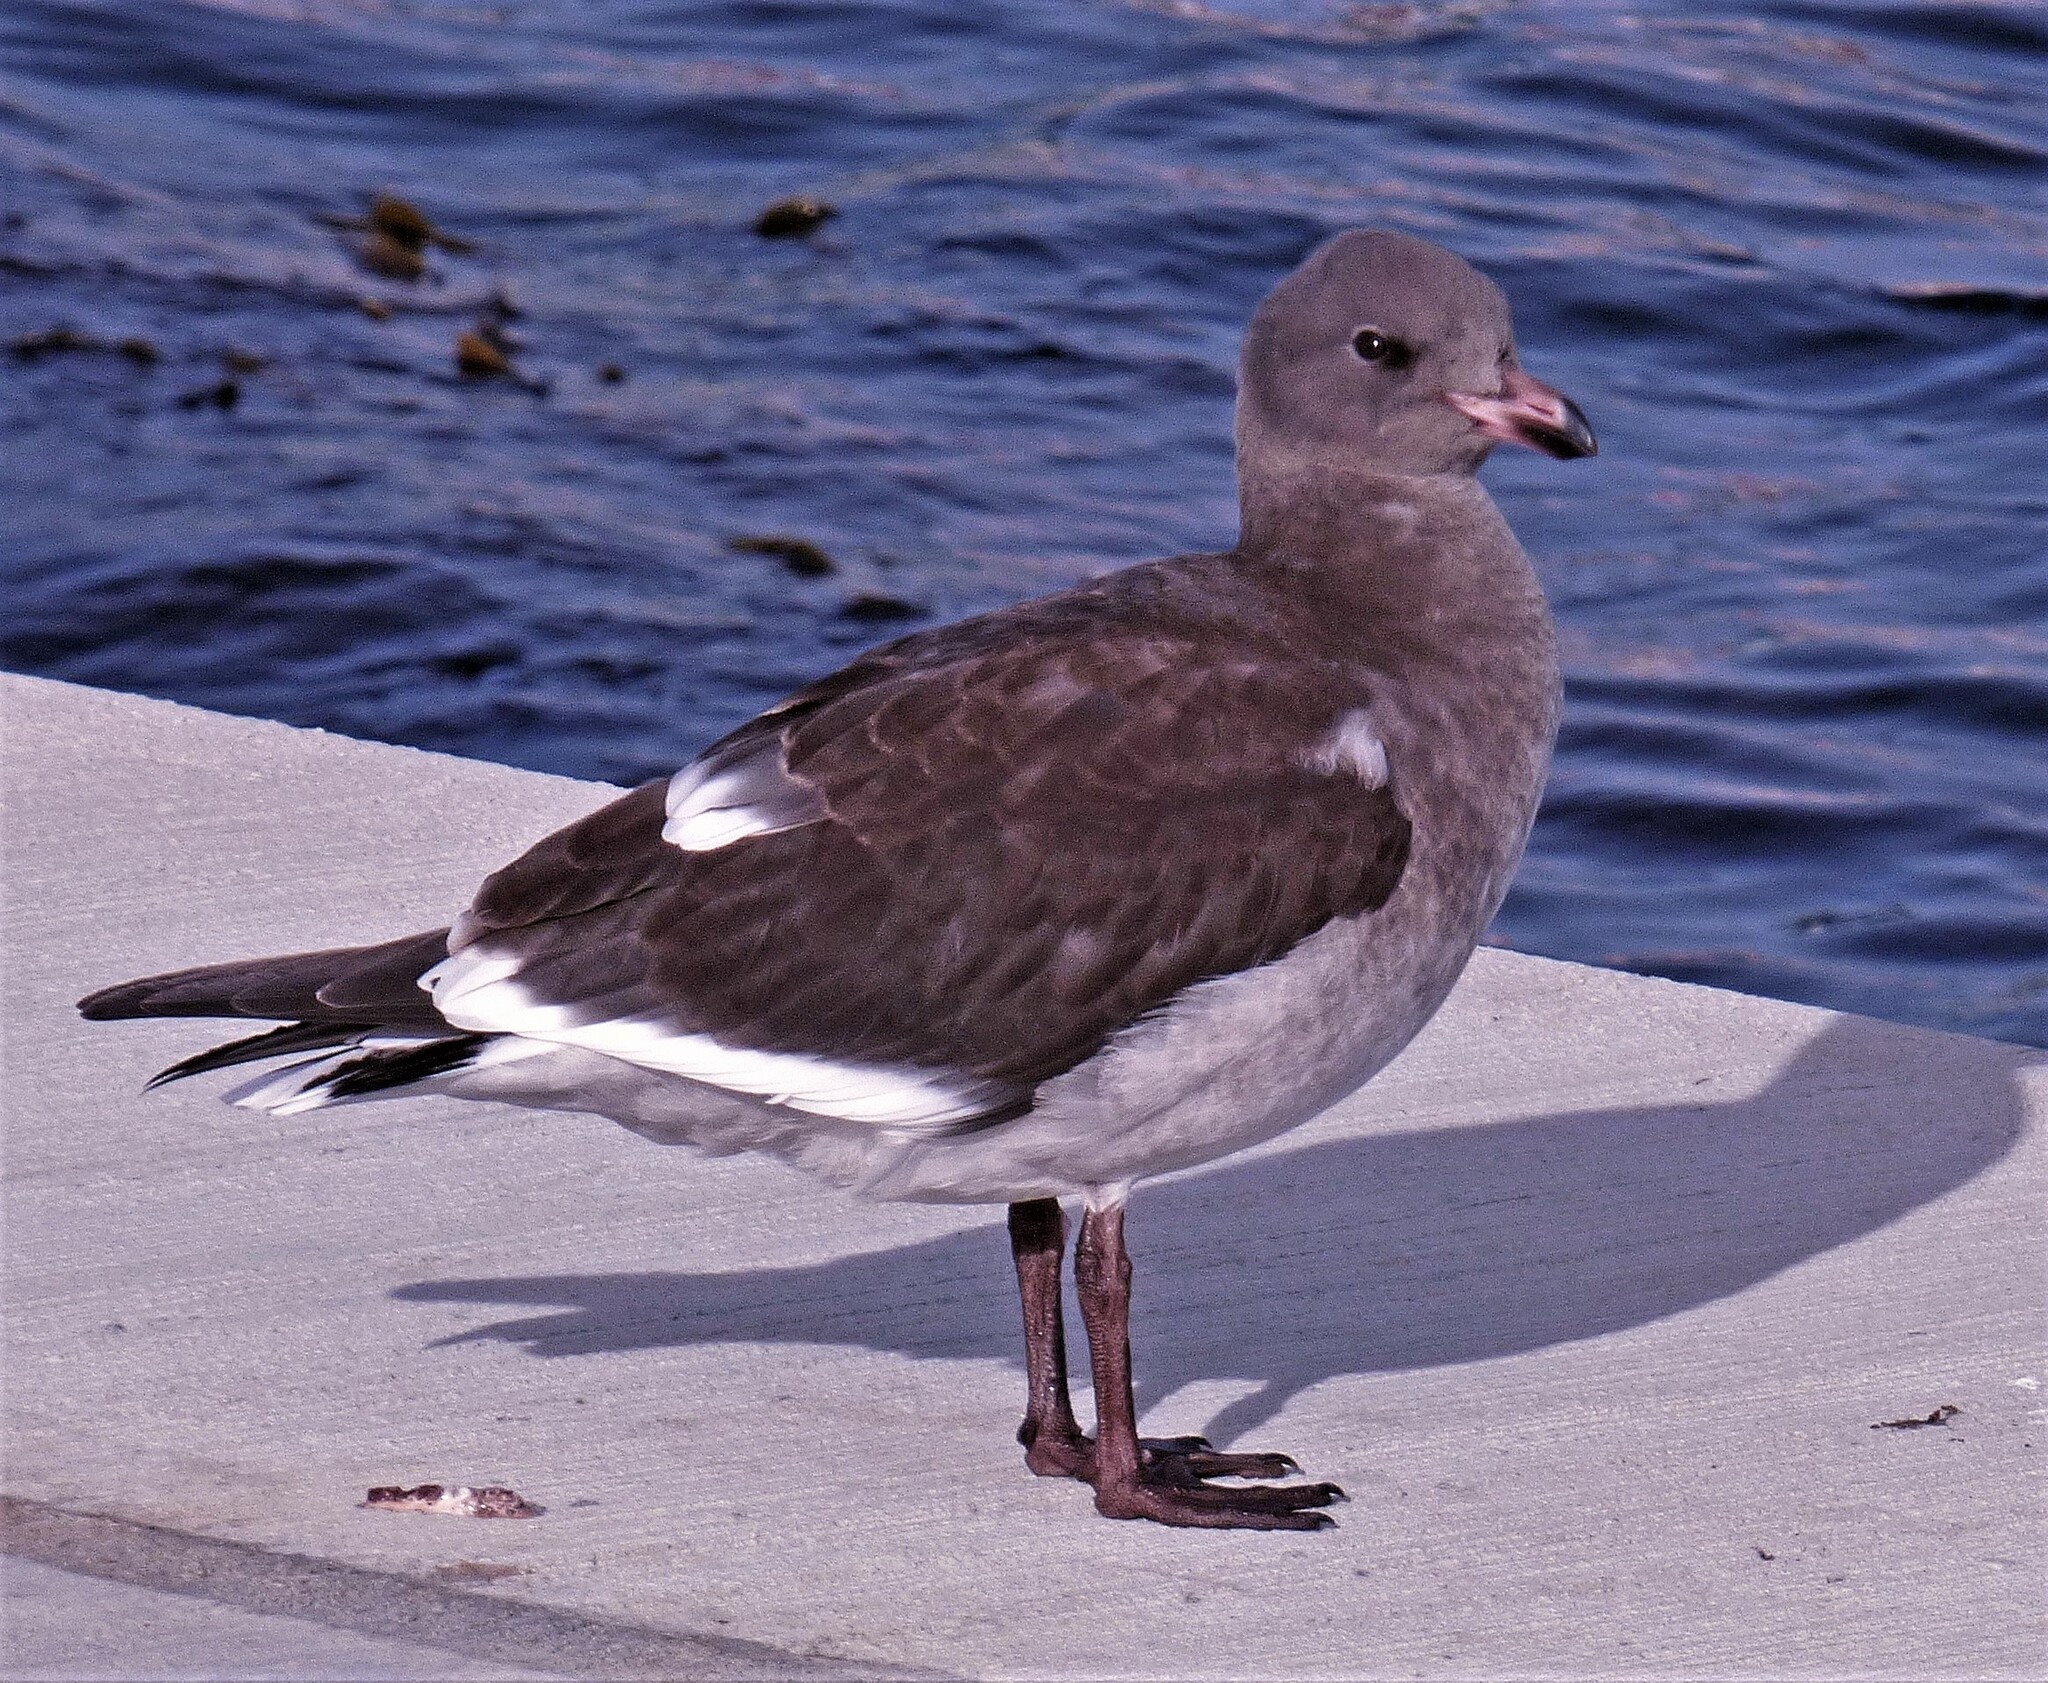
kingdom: Animalia
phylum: Chordata
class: Aves
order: Charadriiformes
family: Laridae
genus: Leucophaeus
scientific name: Leucophaeus scoresbii
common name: Dolphin gull
